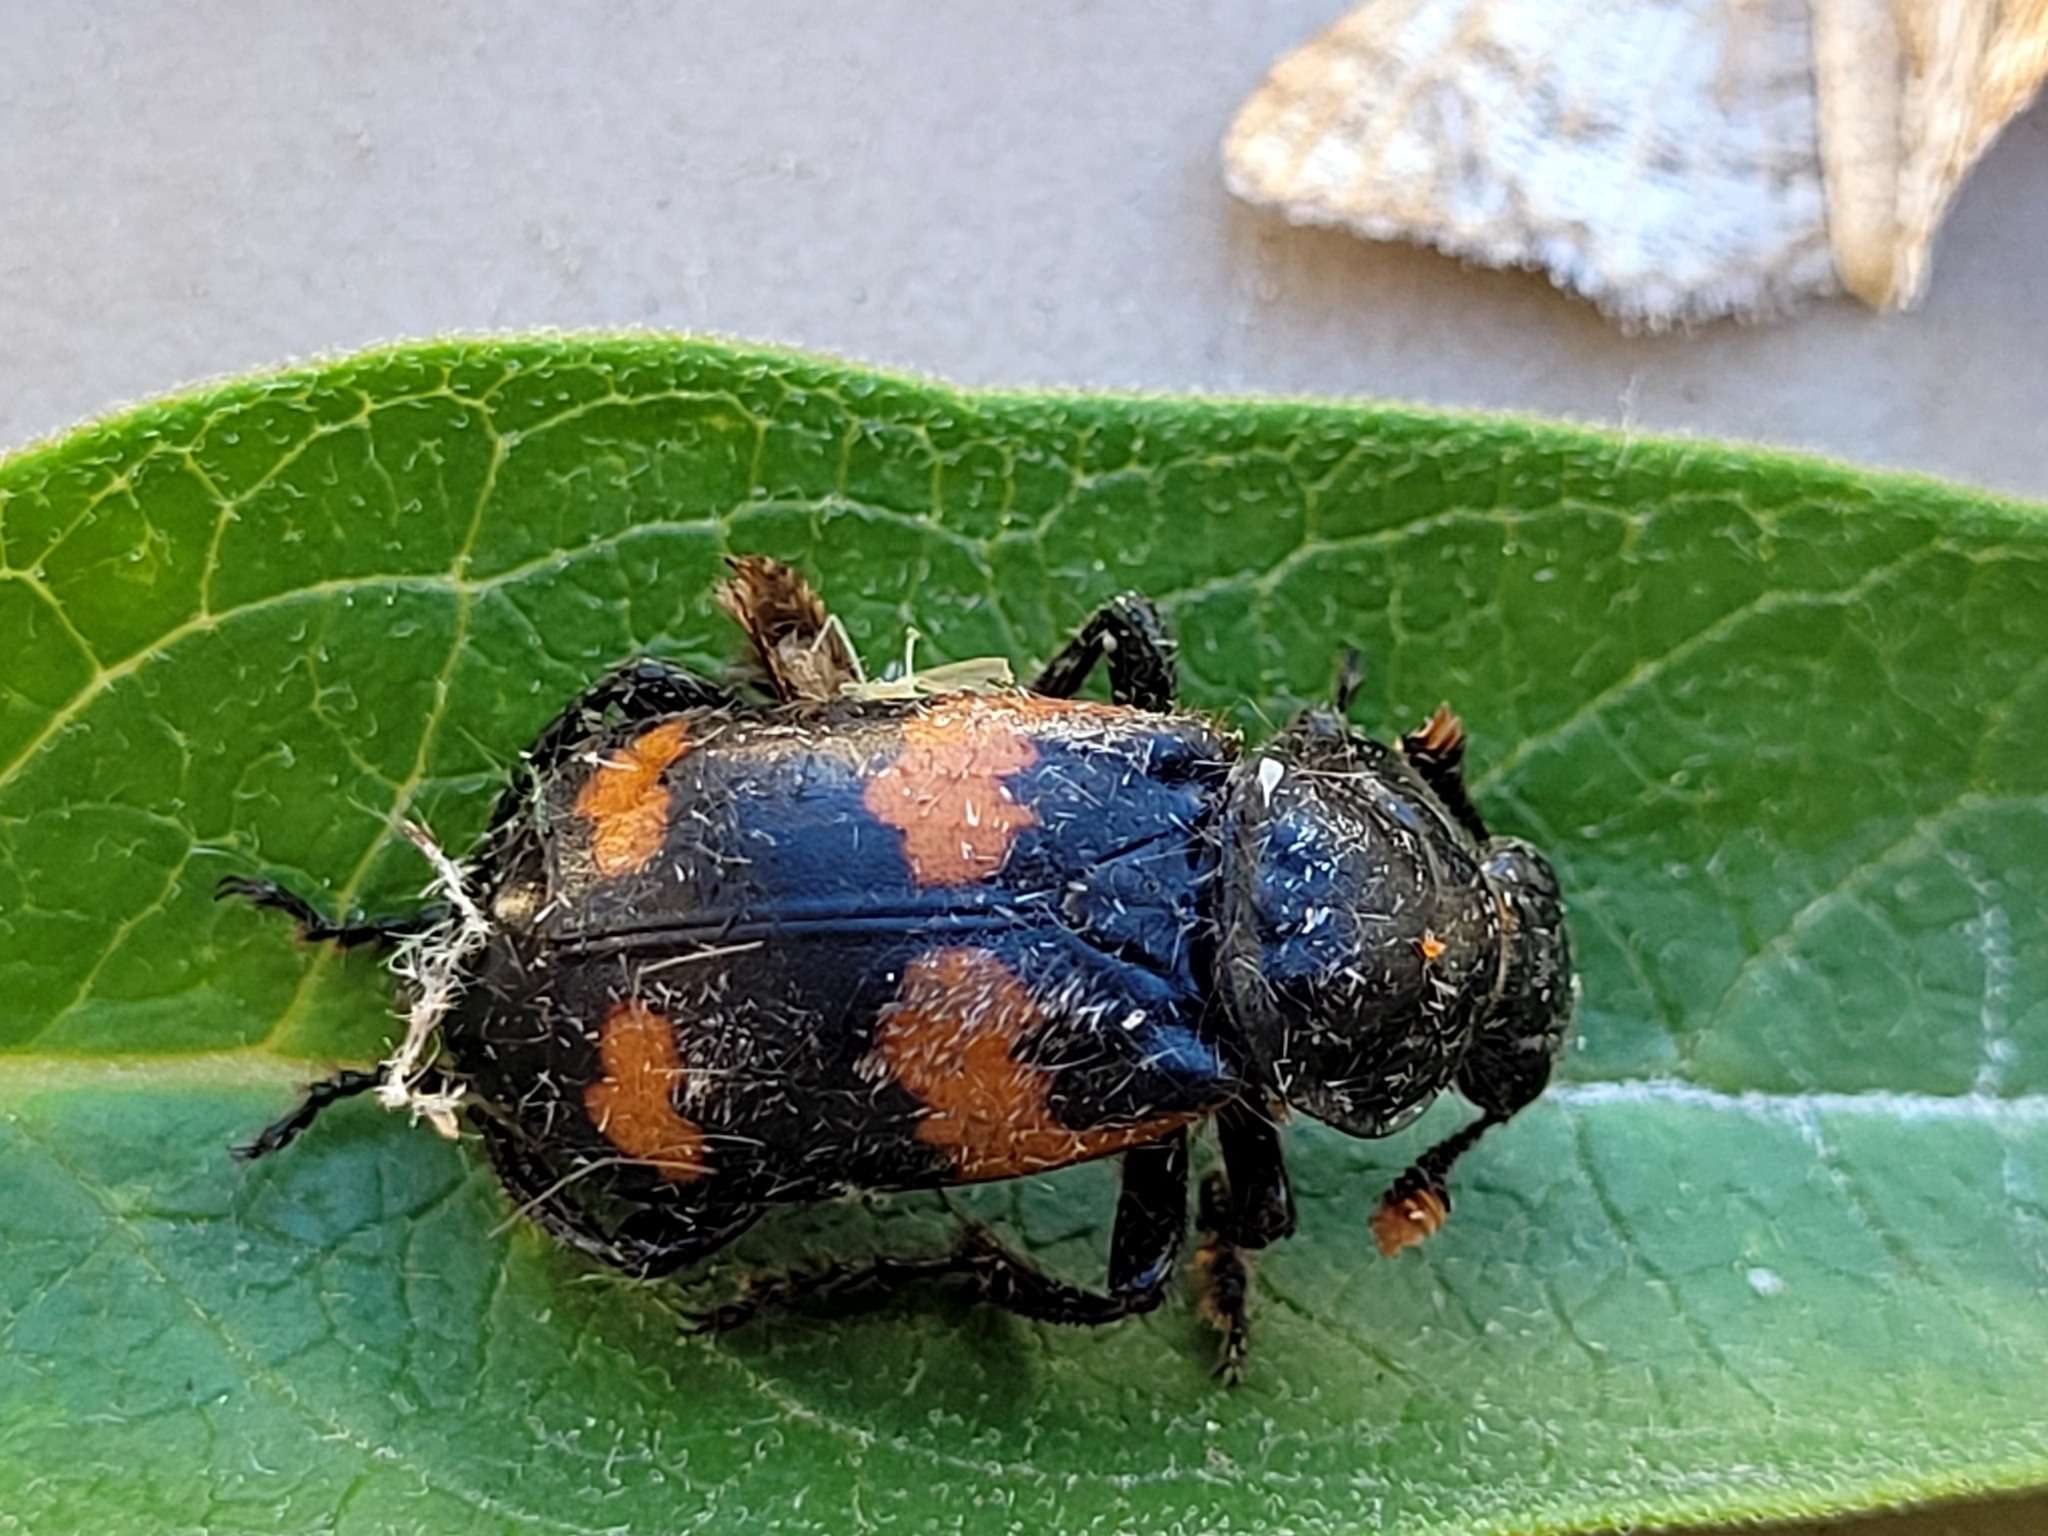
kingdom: Animalia
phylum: Arthropoda
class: Insecta
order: Coleoptera
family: Staphylinidae
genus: Nicrophorus
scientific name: Nicrophorus sayi
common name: Say's burying beetle
